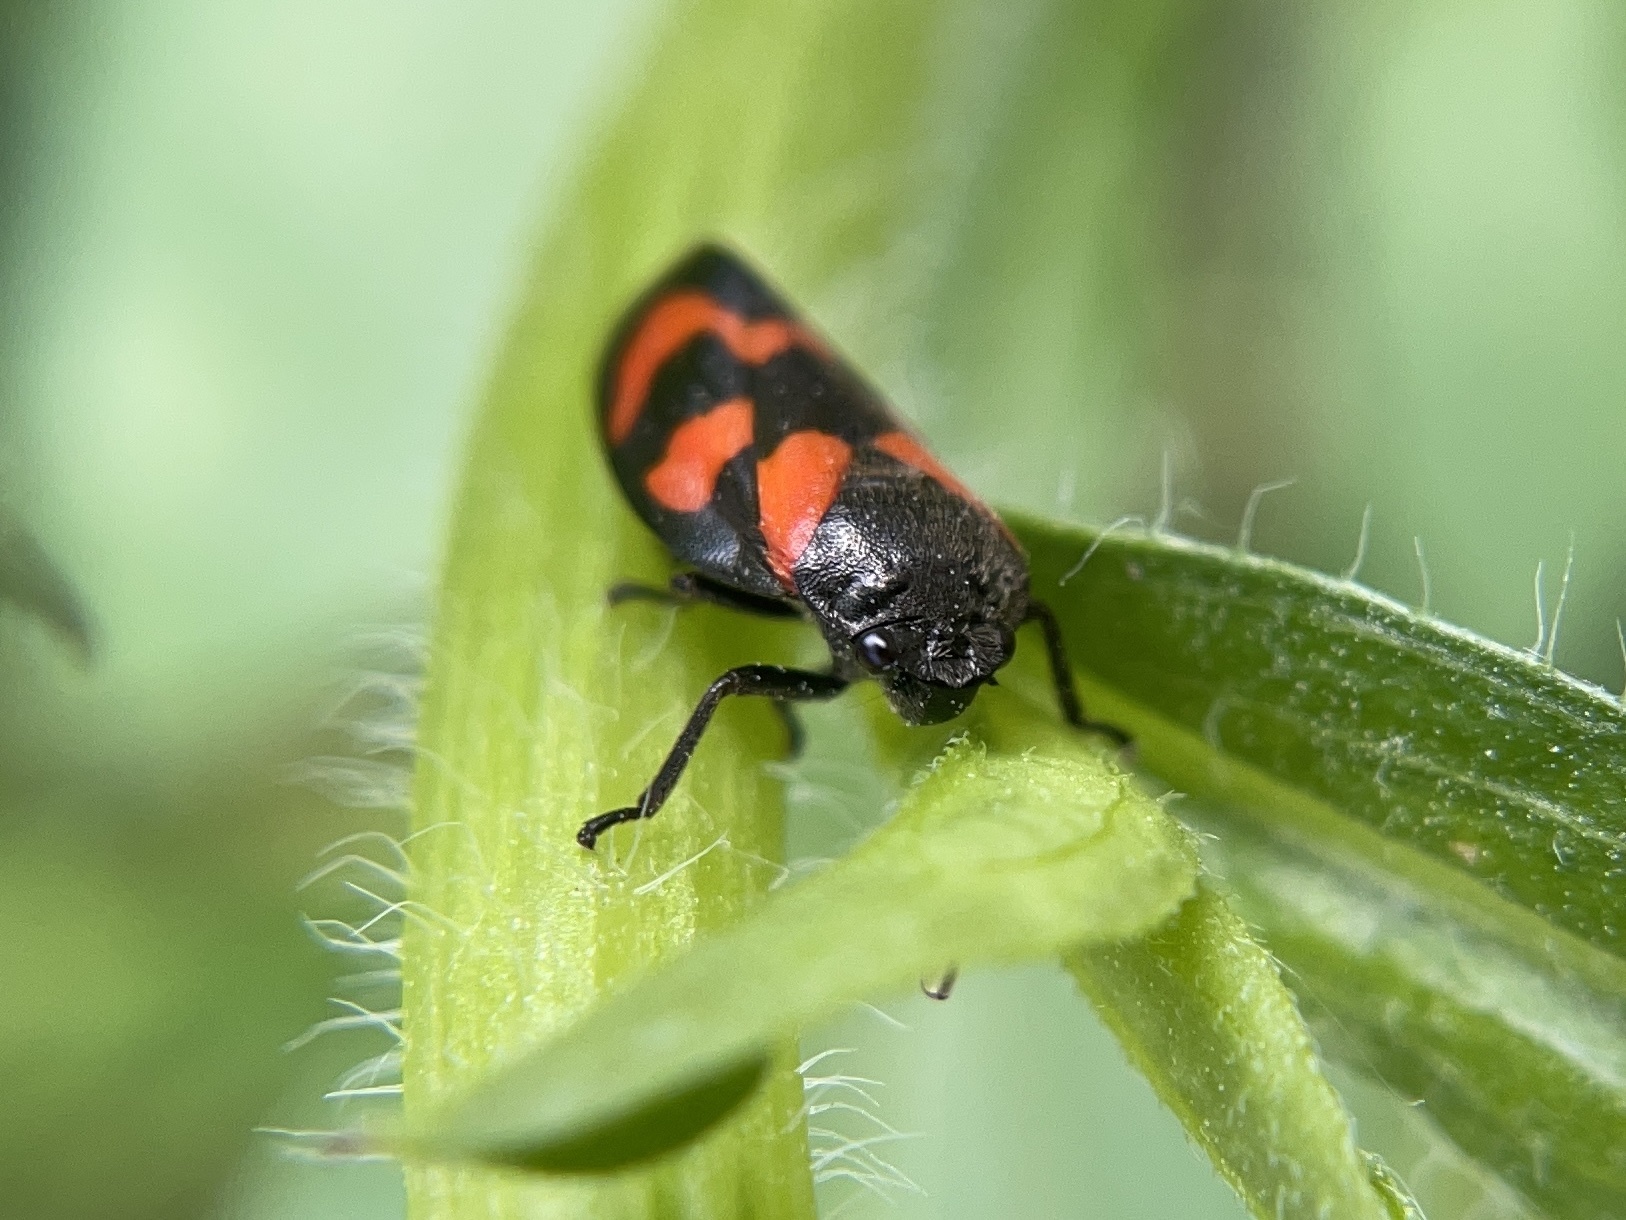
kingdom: Animalia
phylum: Arthropoda
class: Insecta
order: Hemiptera
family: Cercopidae
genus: Cercopis
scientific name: Cercopis vulnerata
